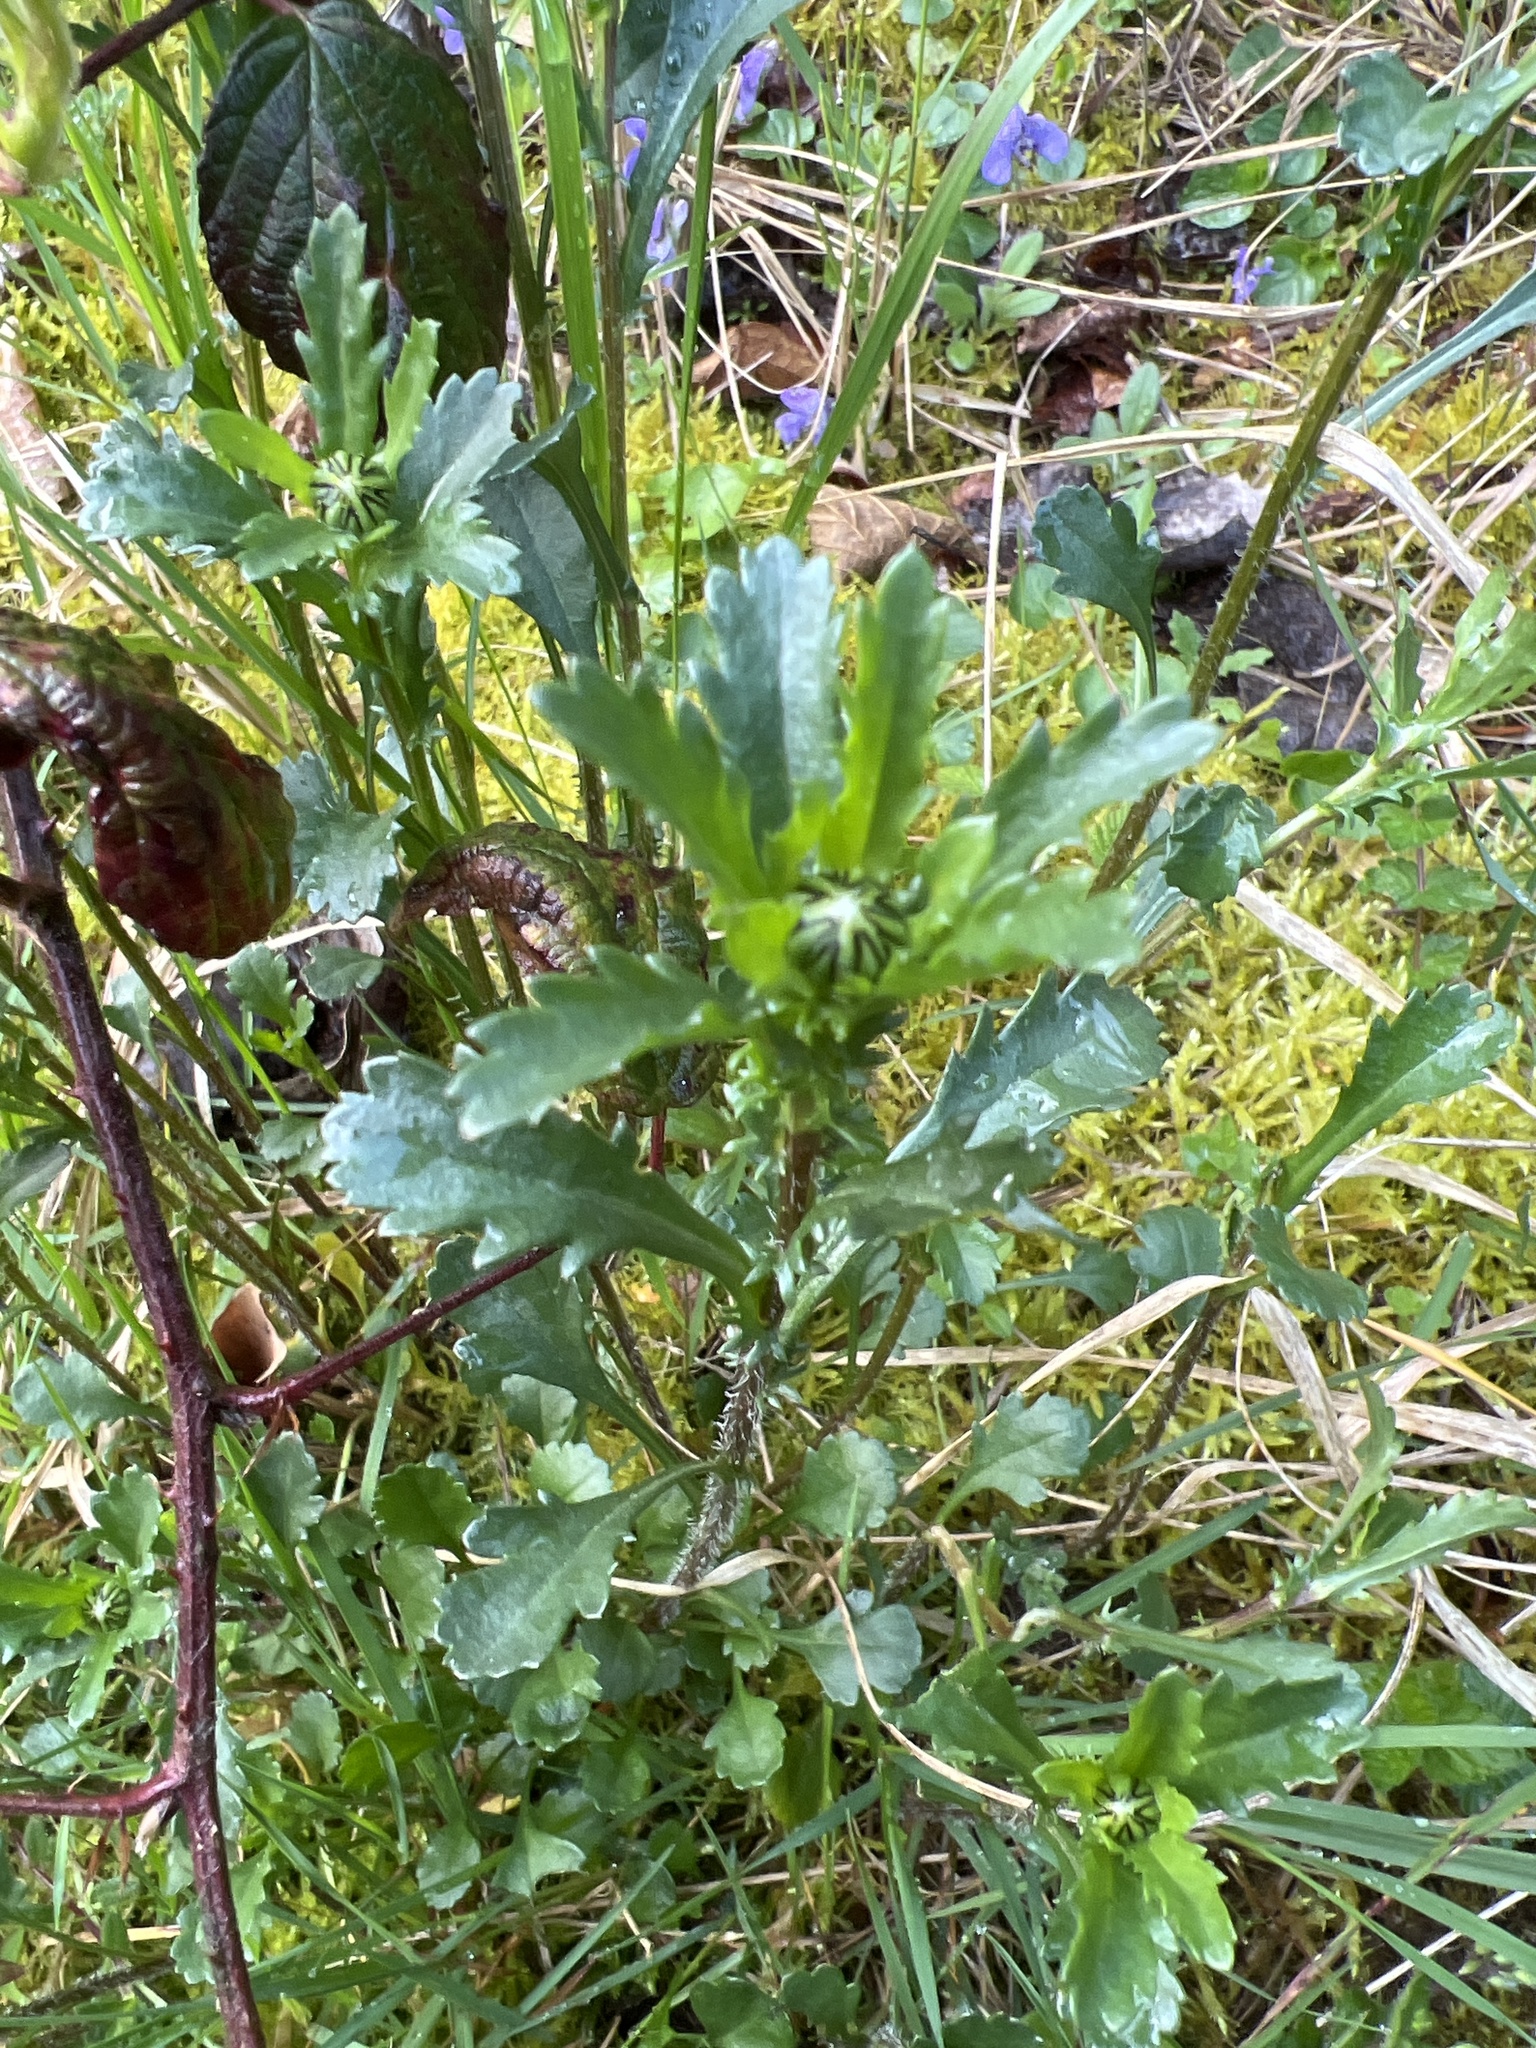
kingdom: Plantae
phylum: Tracheophyta
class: Magnoliopsida
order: Asterales
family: Asteraceae
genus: Leucanthemum
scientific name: Leucanthemum vulgare
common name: Oxeye daisy
